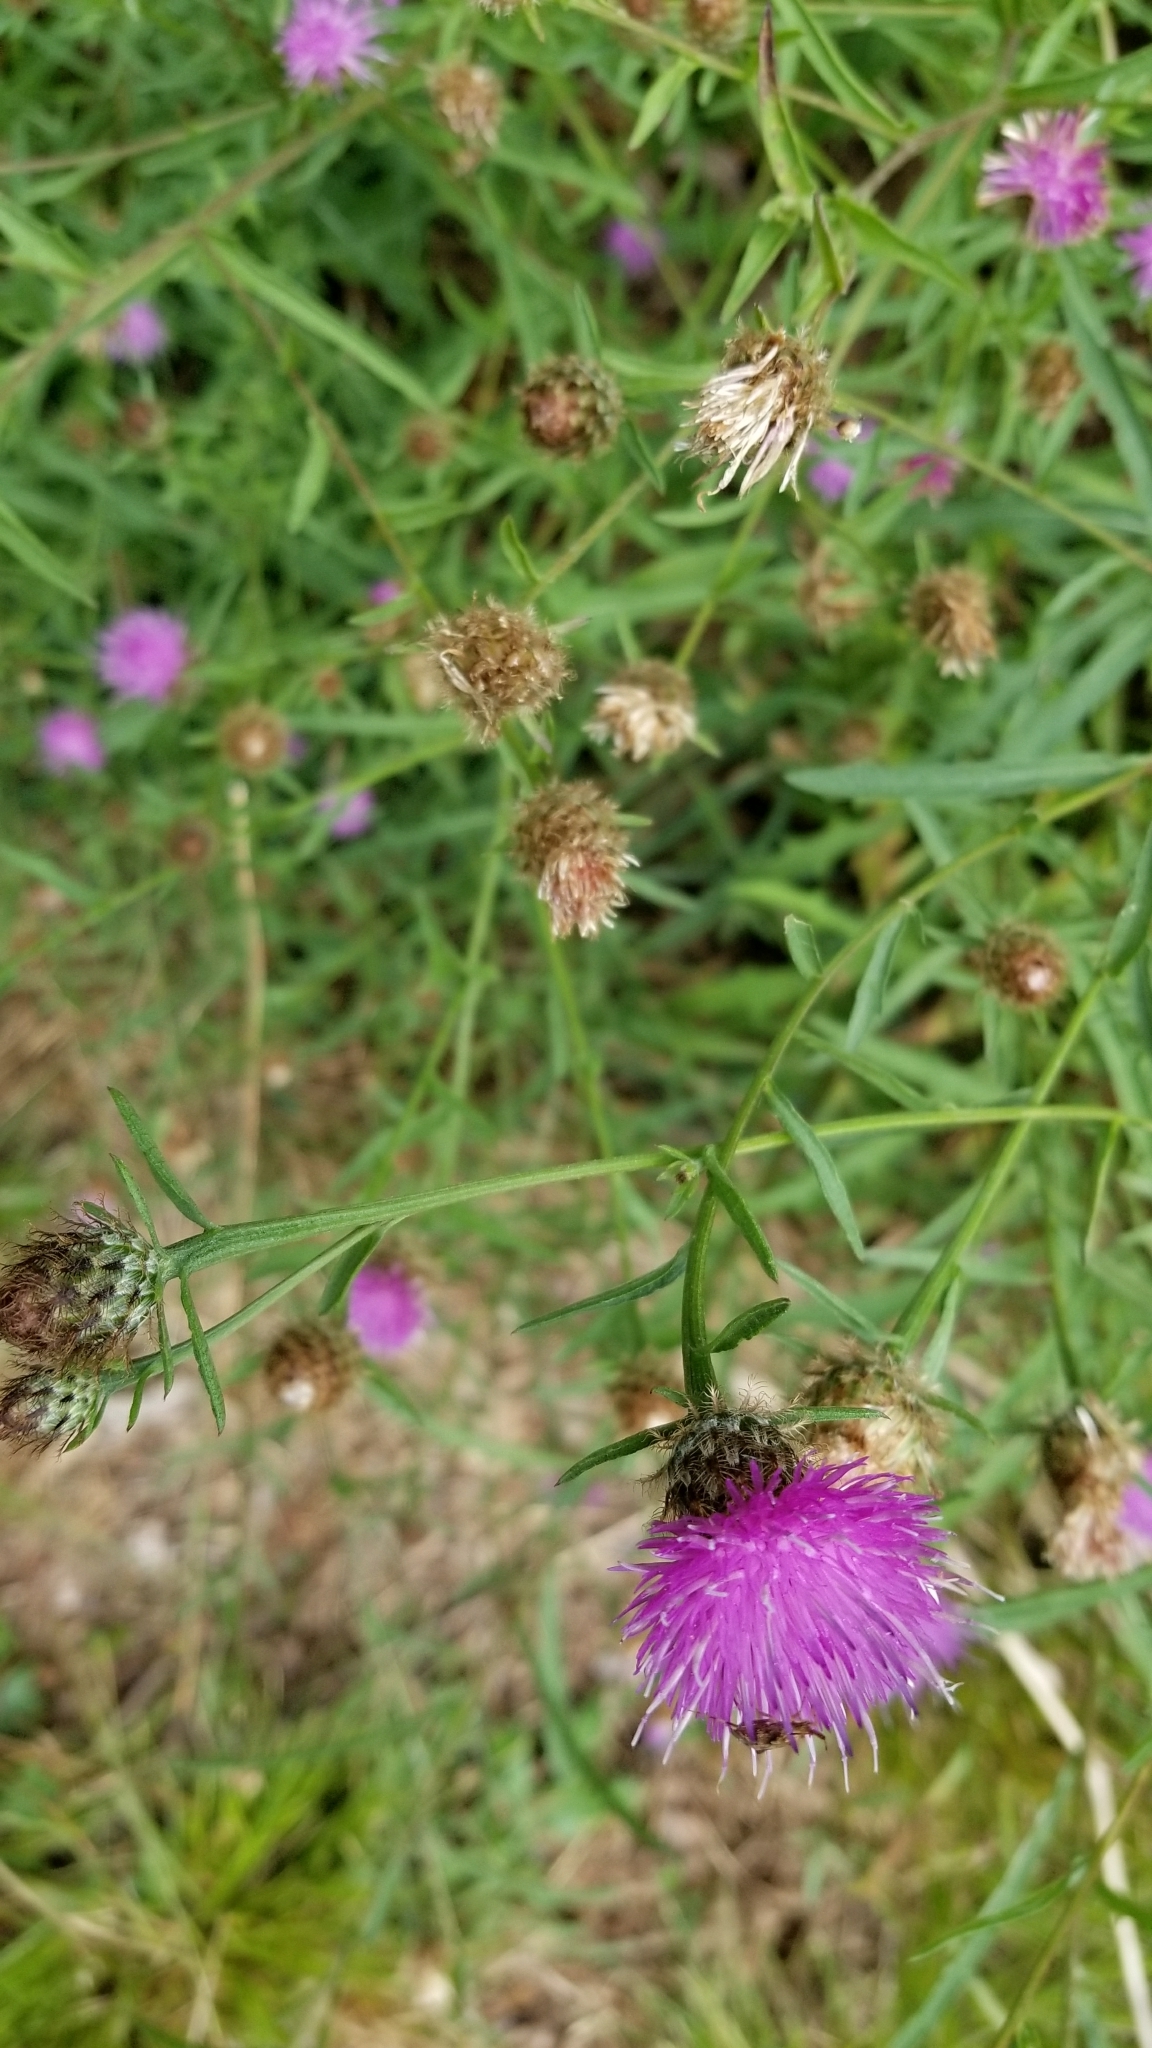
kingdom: Plantae
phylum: Tracheophyta
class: Magnoliopsida
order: Asterales
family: Asteraceae
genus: Centaurea
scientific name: Centaurea stoebe
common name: Spotted knapweed
